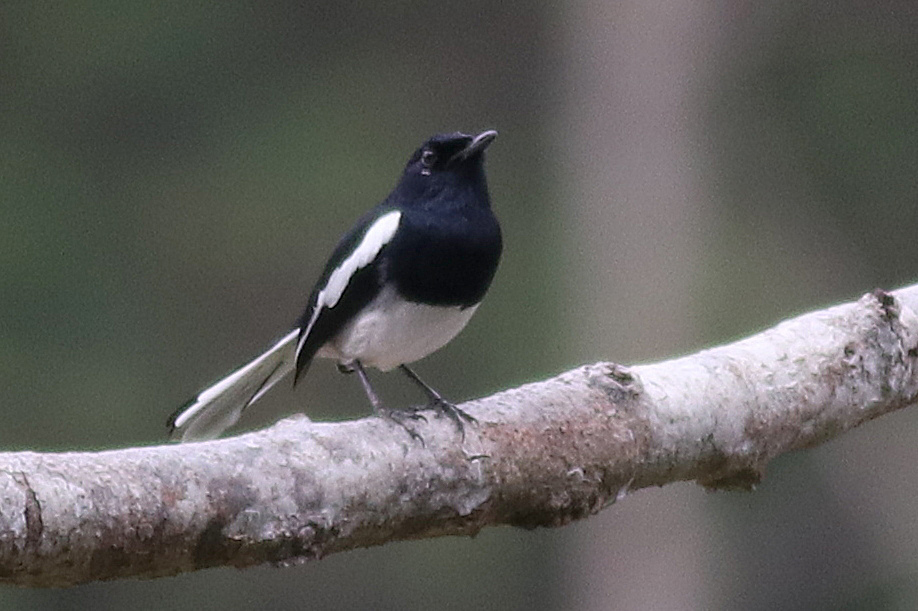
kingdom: Animalia
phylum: Chordata
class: Aves
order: Passeriformes
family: Muscicapidae
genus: Copsychus
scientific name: Copsychus saularis
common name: Oriental magpie-robin
